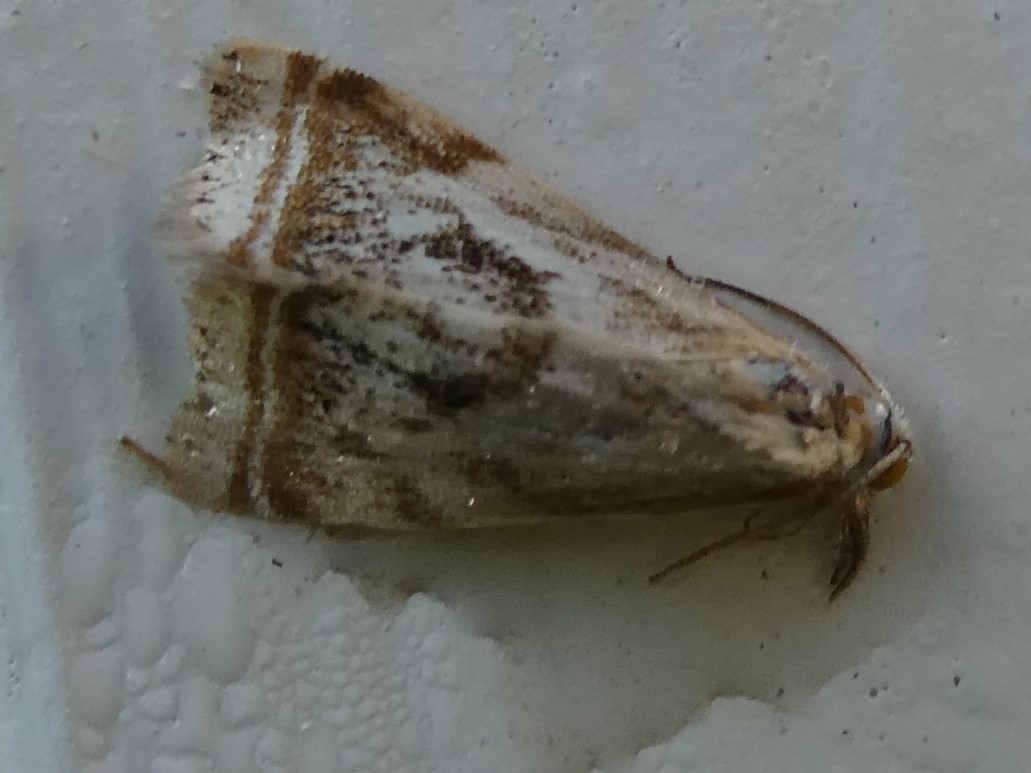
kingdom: Animalia
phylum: Arthropoda
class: Insecta
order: Lepidoptera
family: Crambidae
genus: Microcrambus
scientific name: Microcrambus elegans
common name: Elegant grass-veneer
